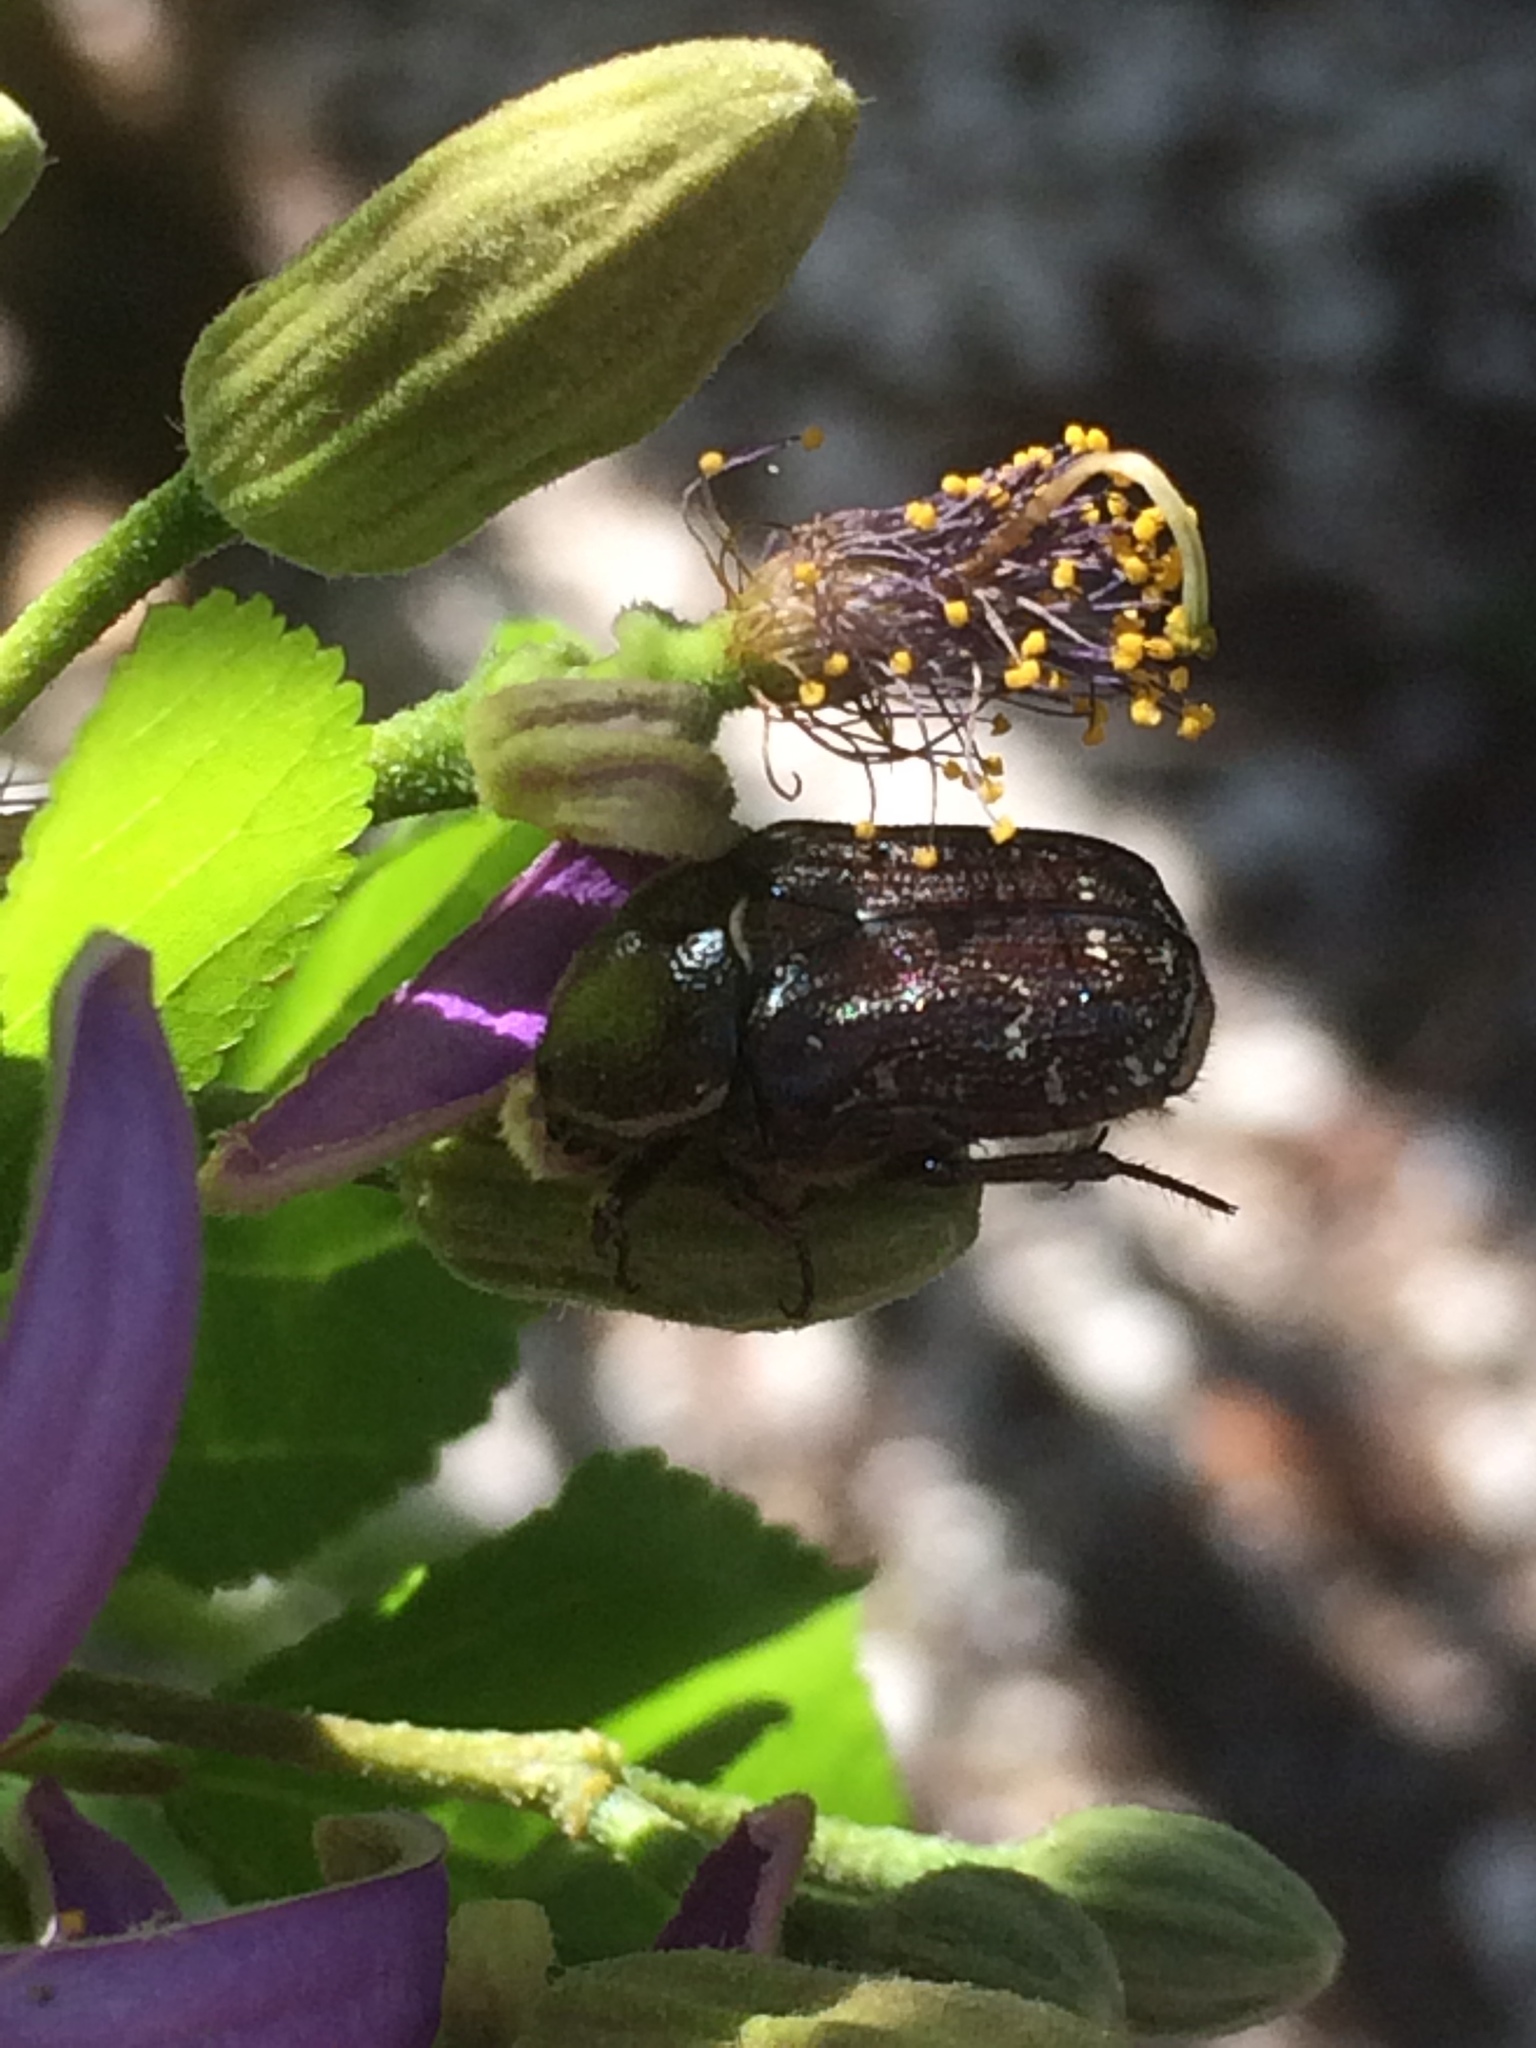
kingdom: Animalia
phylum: Arthropoda
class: Insecta
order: Coleoptera
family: Scarabaeidae
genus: Euphoria
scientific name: Euphoria sepulcralis
